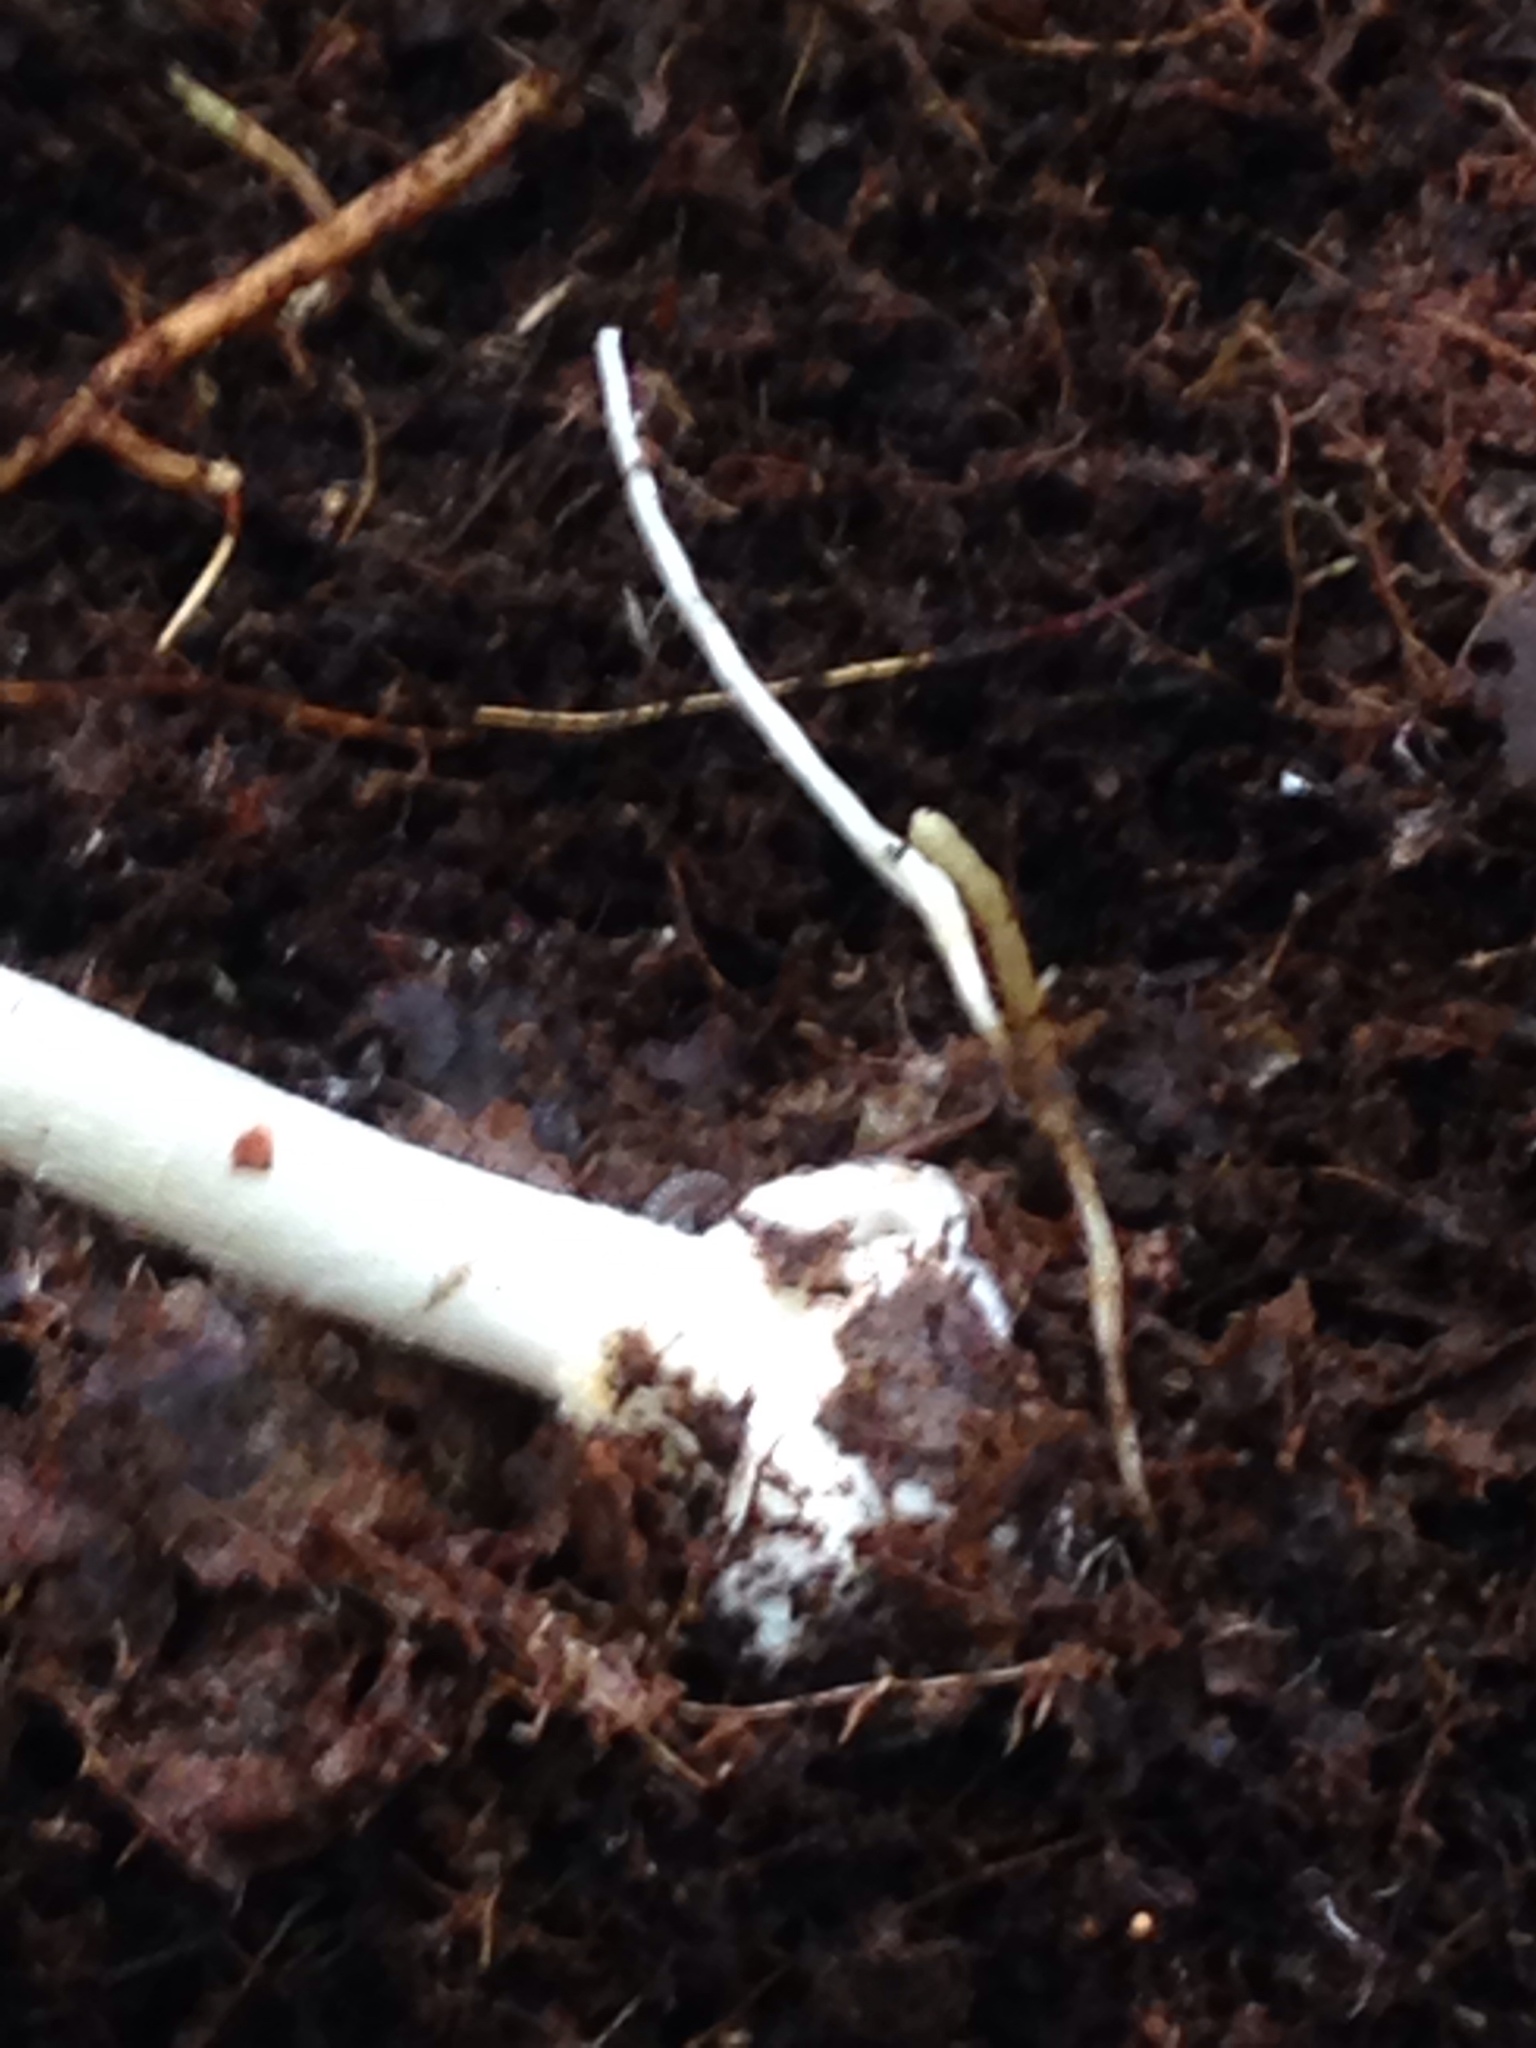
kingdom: Fungi
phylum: Basidiomycota
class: Agaricomycetes
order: Agaricales
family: Amanitaceae
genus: Amanita
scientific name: Amanita bisporigera
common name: Eastern north american destroying angel
